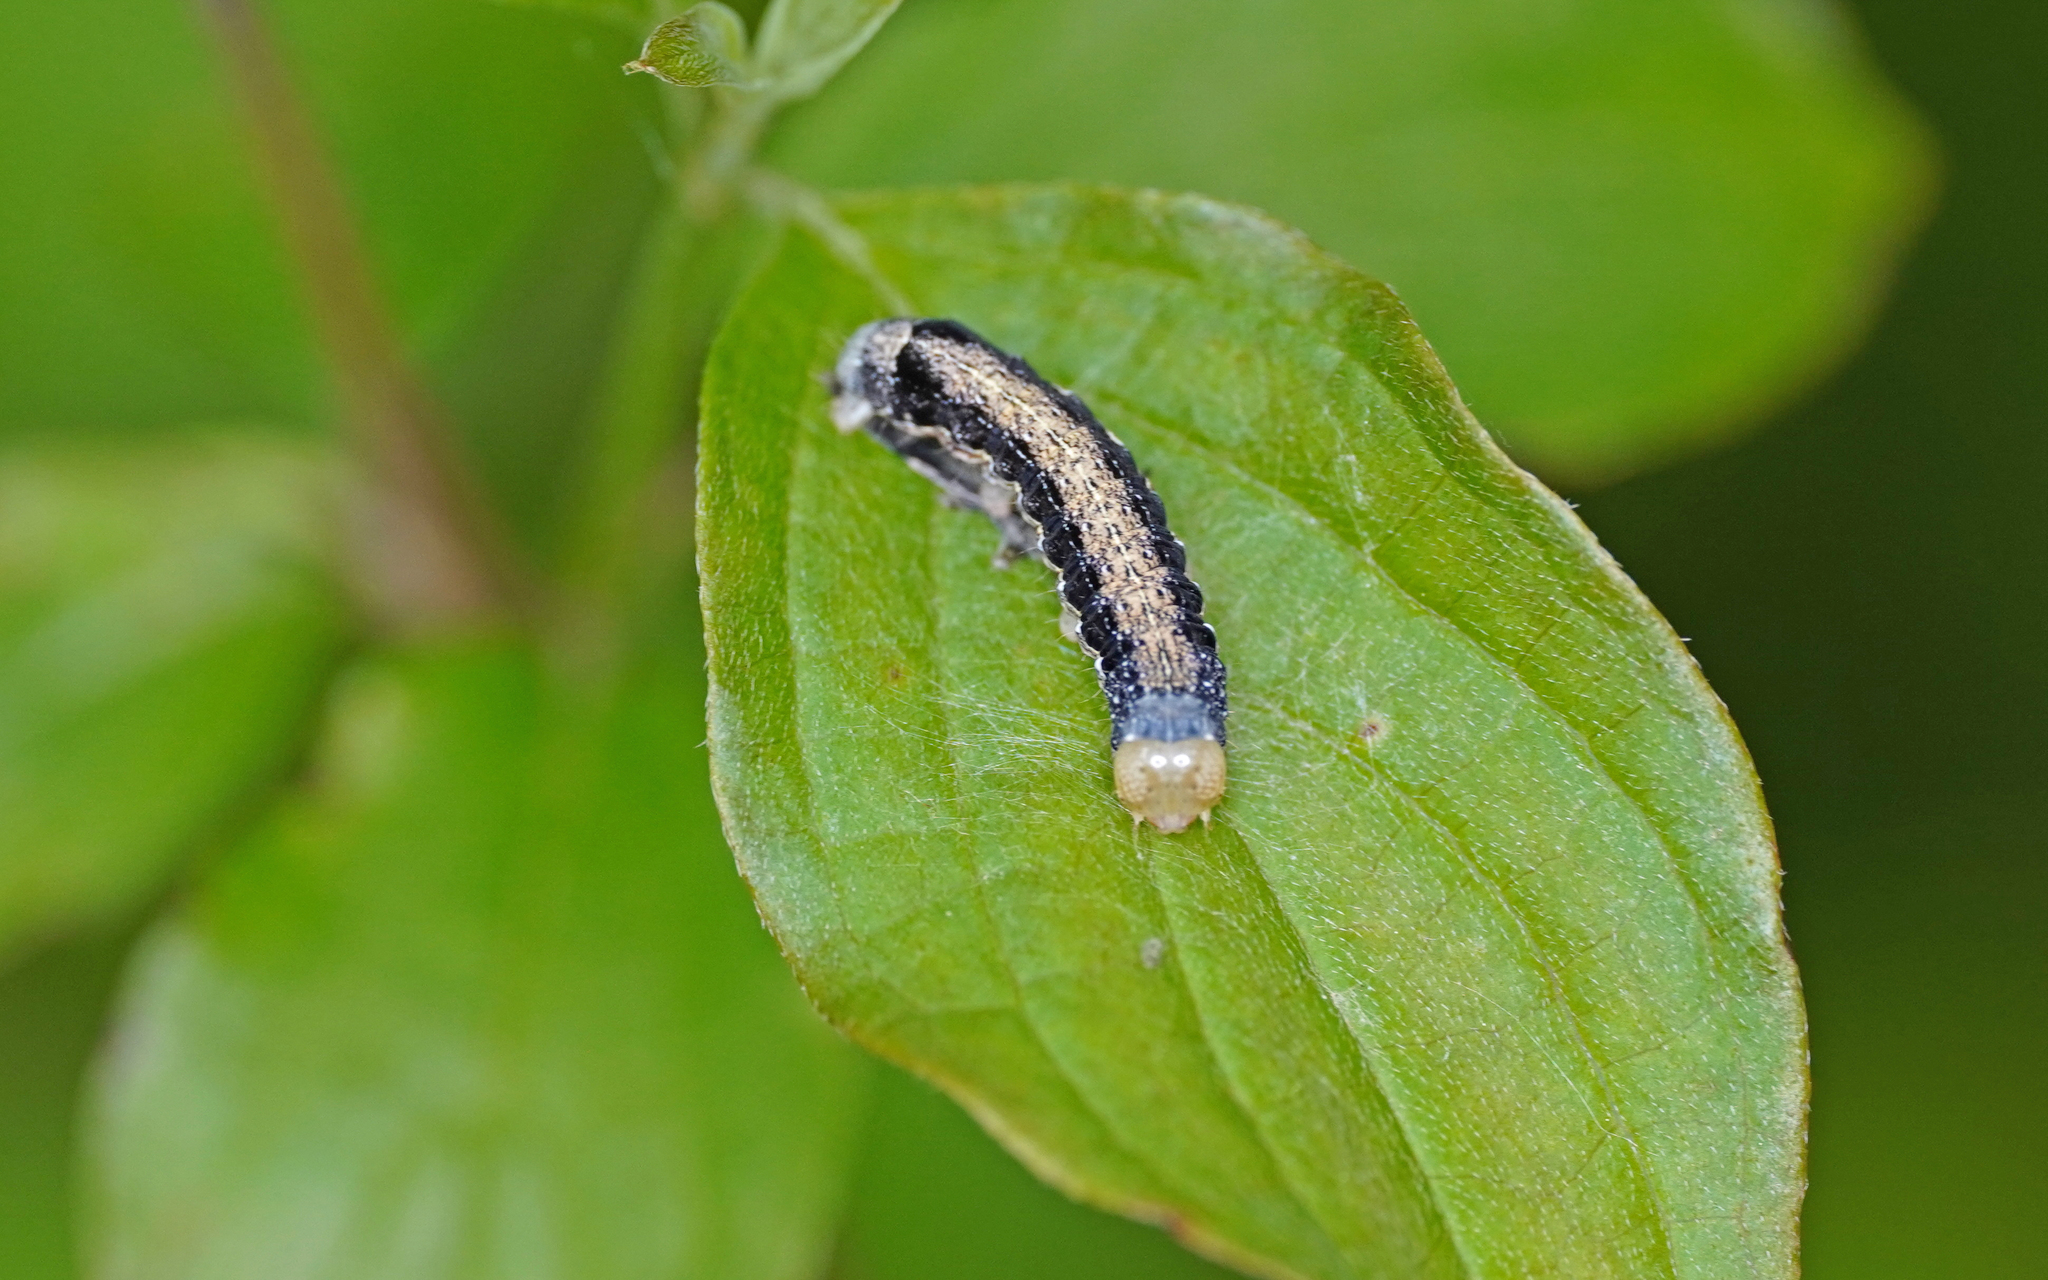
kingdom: Animalia
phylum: Arthropoda
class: Insecta
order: Lepidoptera
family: Noctuidae
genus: Anorthoa
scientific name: Anorthoa munda
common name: Twin-spotted quaker
